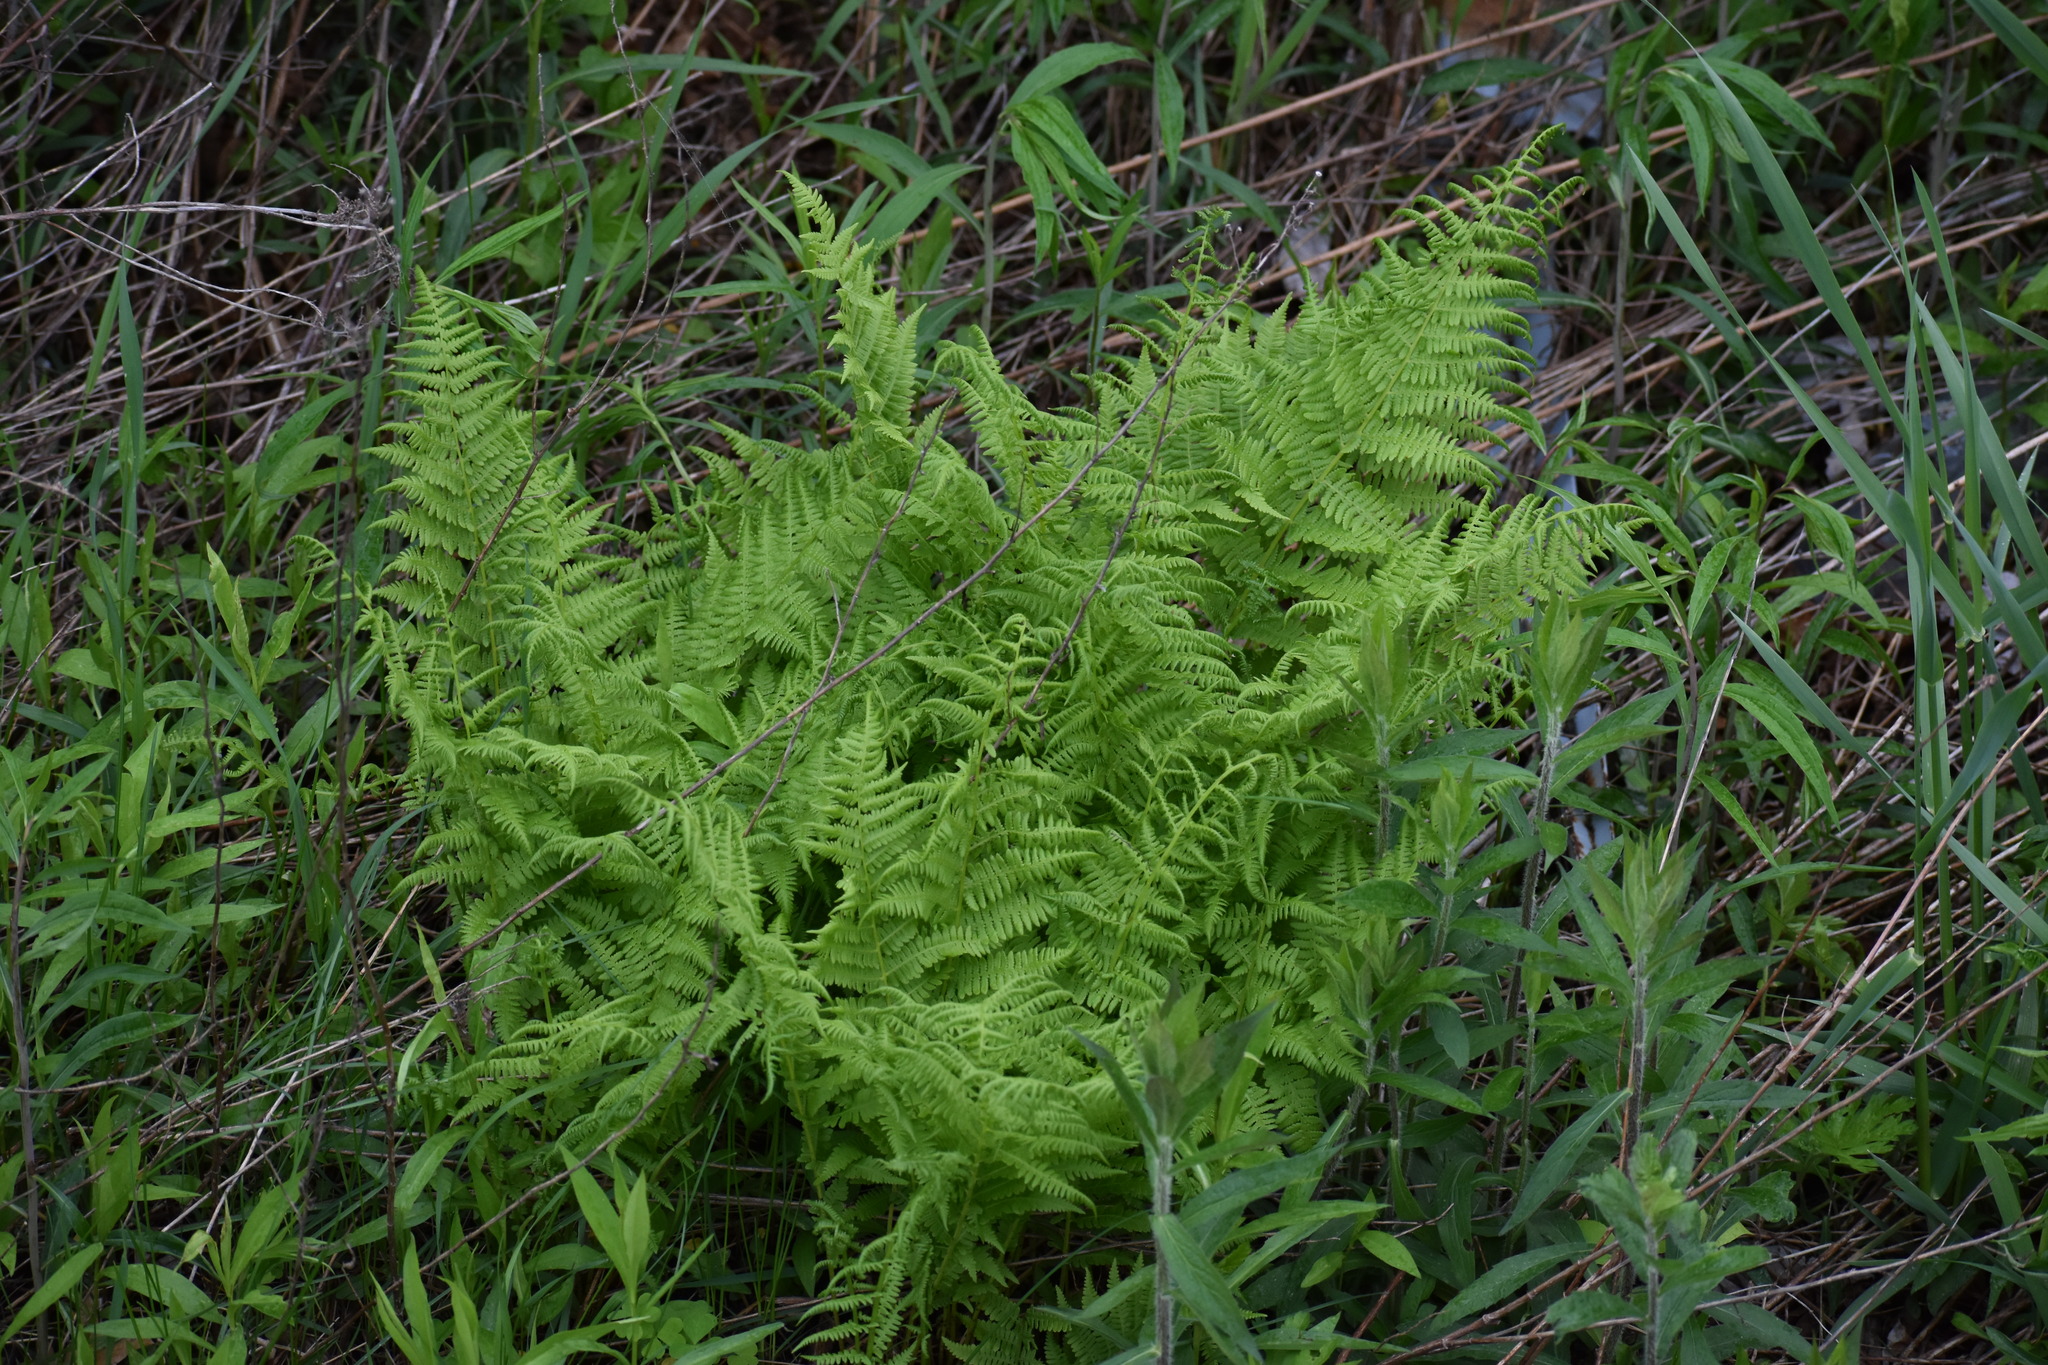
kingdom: Plantae
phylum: Tracheophyta
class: Polypodiopsida
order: Polypodiales
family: Athyriaceae
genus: Athyrium
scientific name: Athyrium angustum
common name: Northern lady fern
